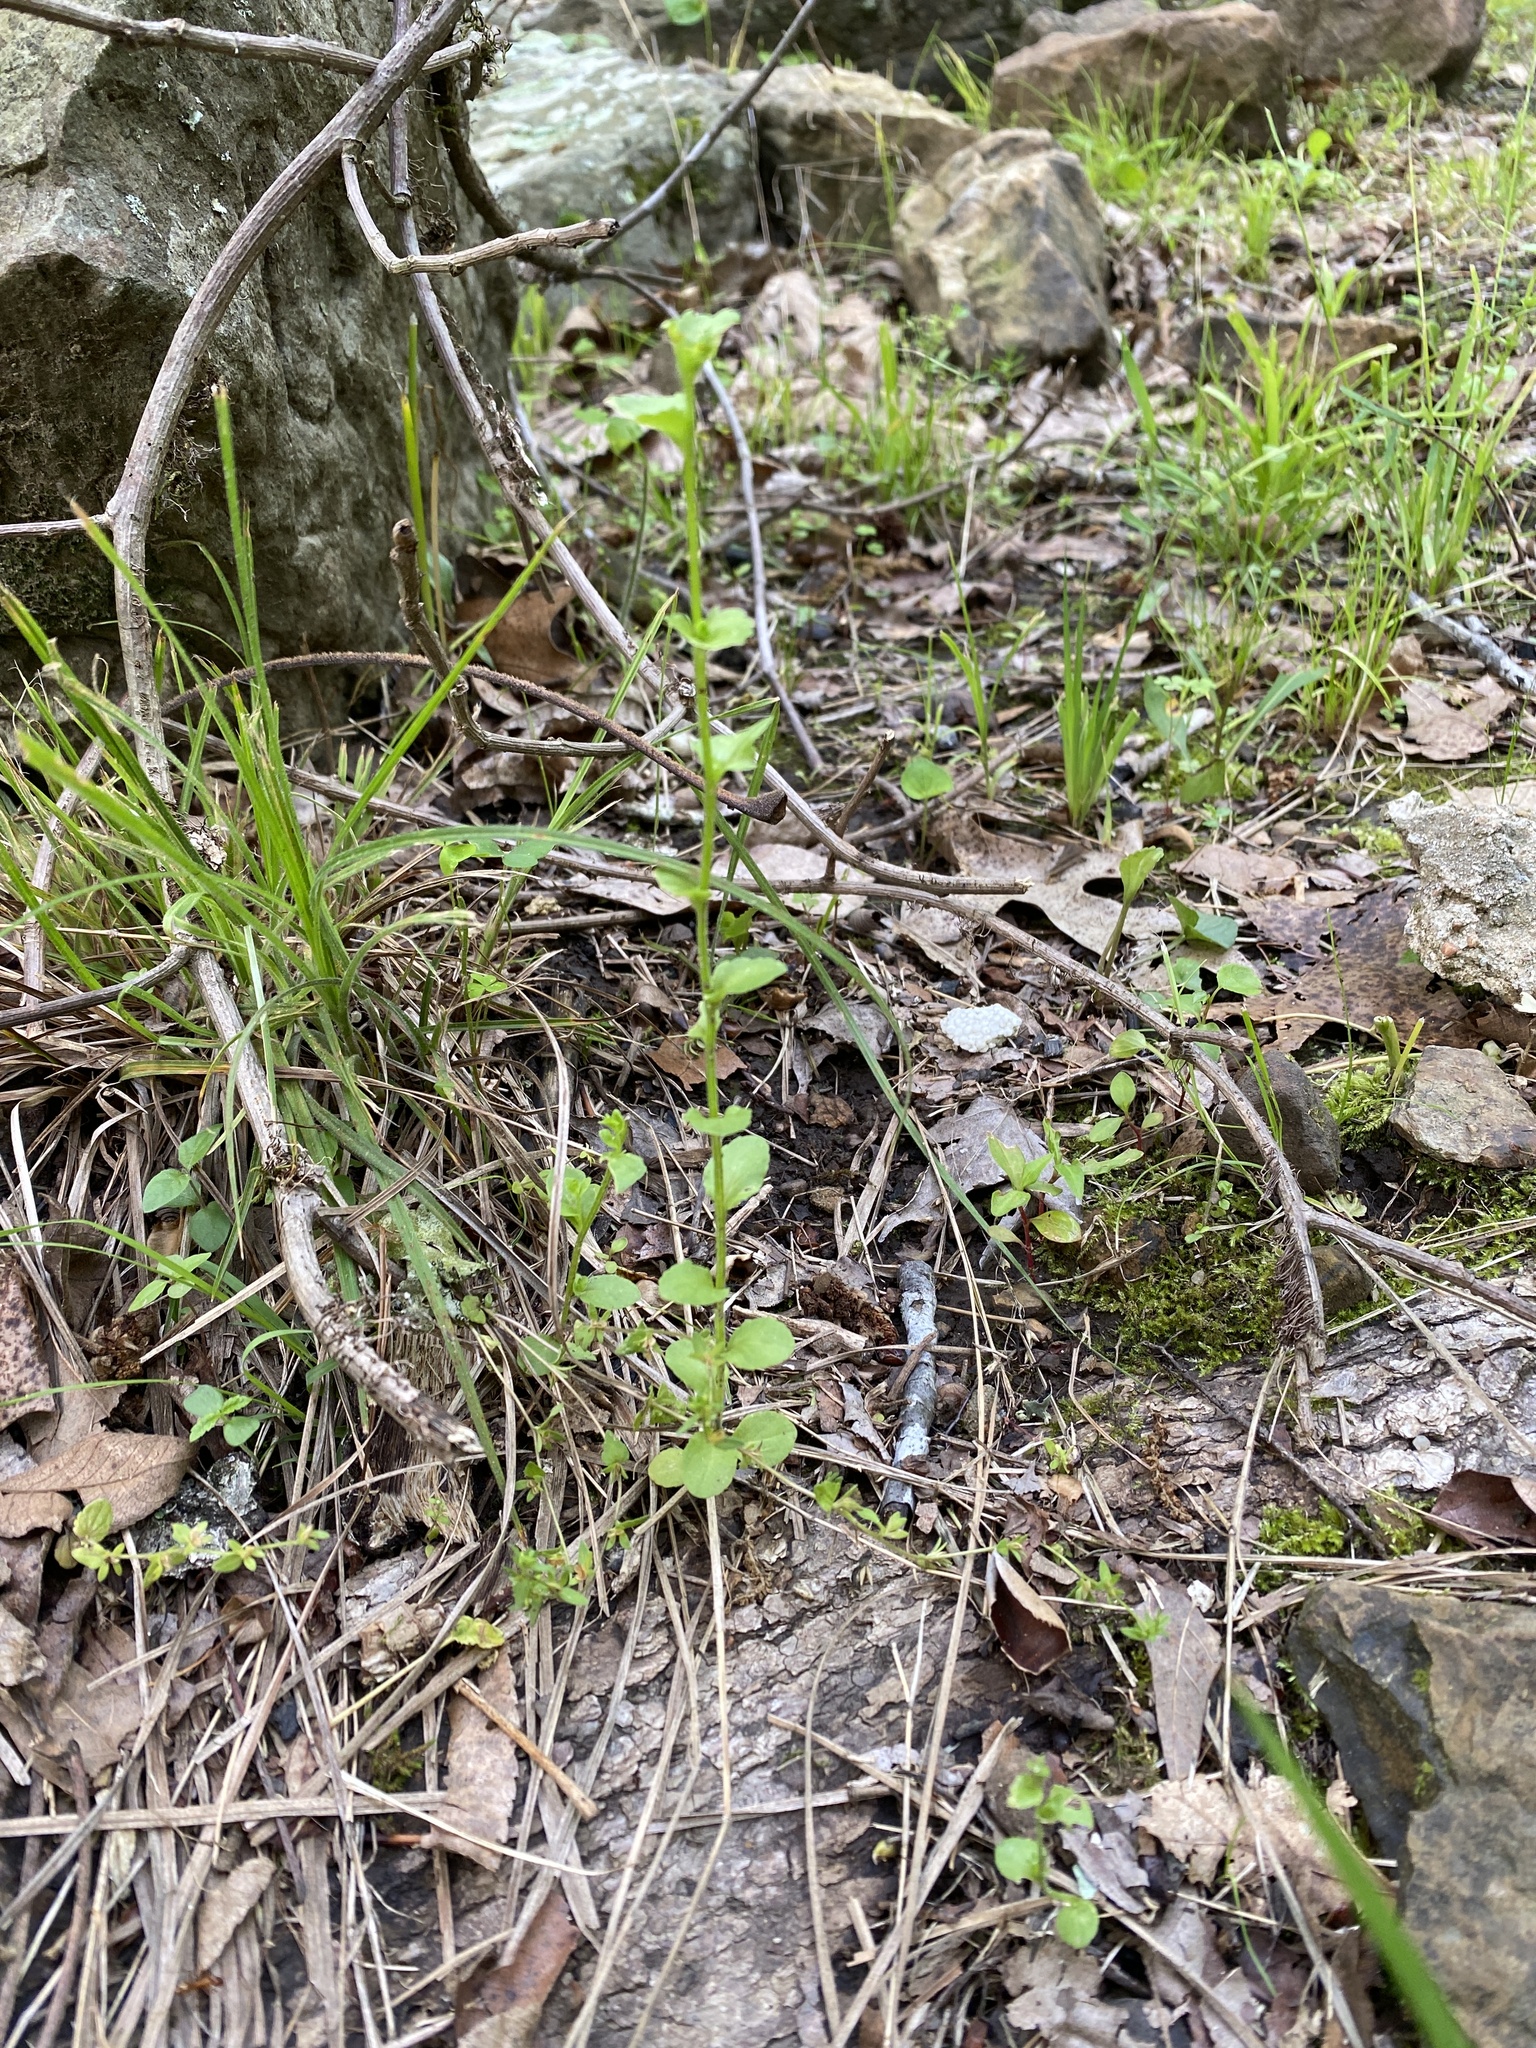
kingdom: Plantae
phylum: Tracheophyta
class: Magnoliopsida
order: Asterales
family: Campanulaceae
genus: Triodanis
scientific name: Triodanis perfoliata
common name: Clasping venus' looking-glass
